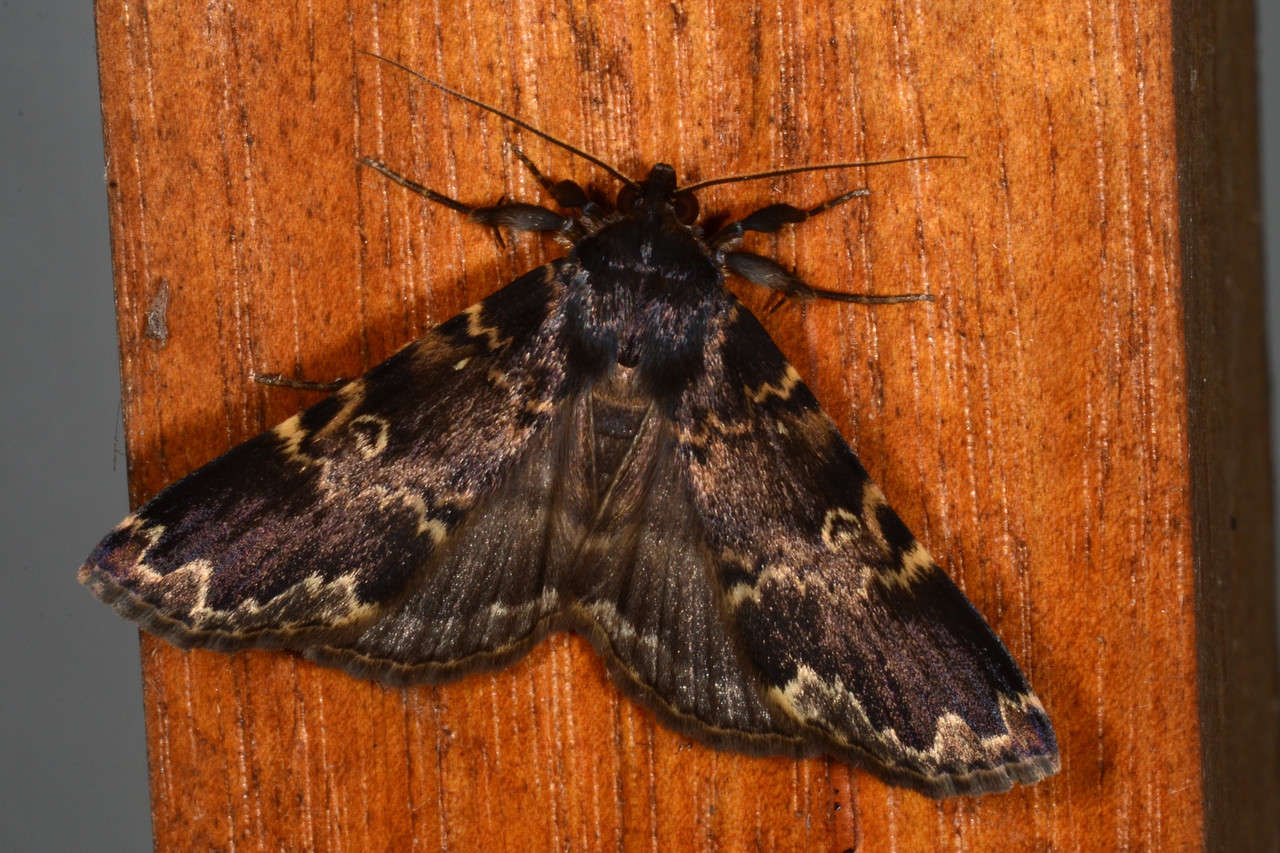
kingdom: Animalia
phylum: Arthropoda
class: Insecta
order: Lepidoptera
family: Erebidae
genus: Mormoscopa
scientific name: Mormoscopa sordescens
